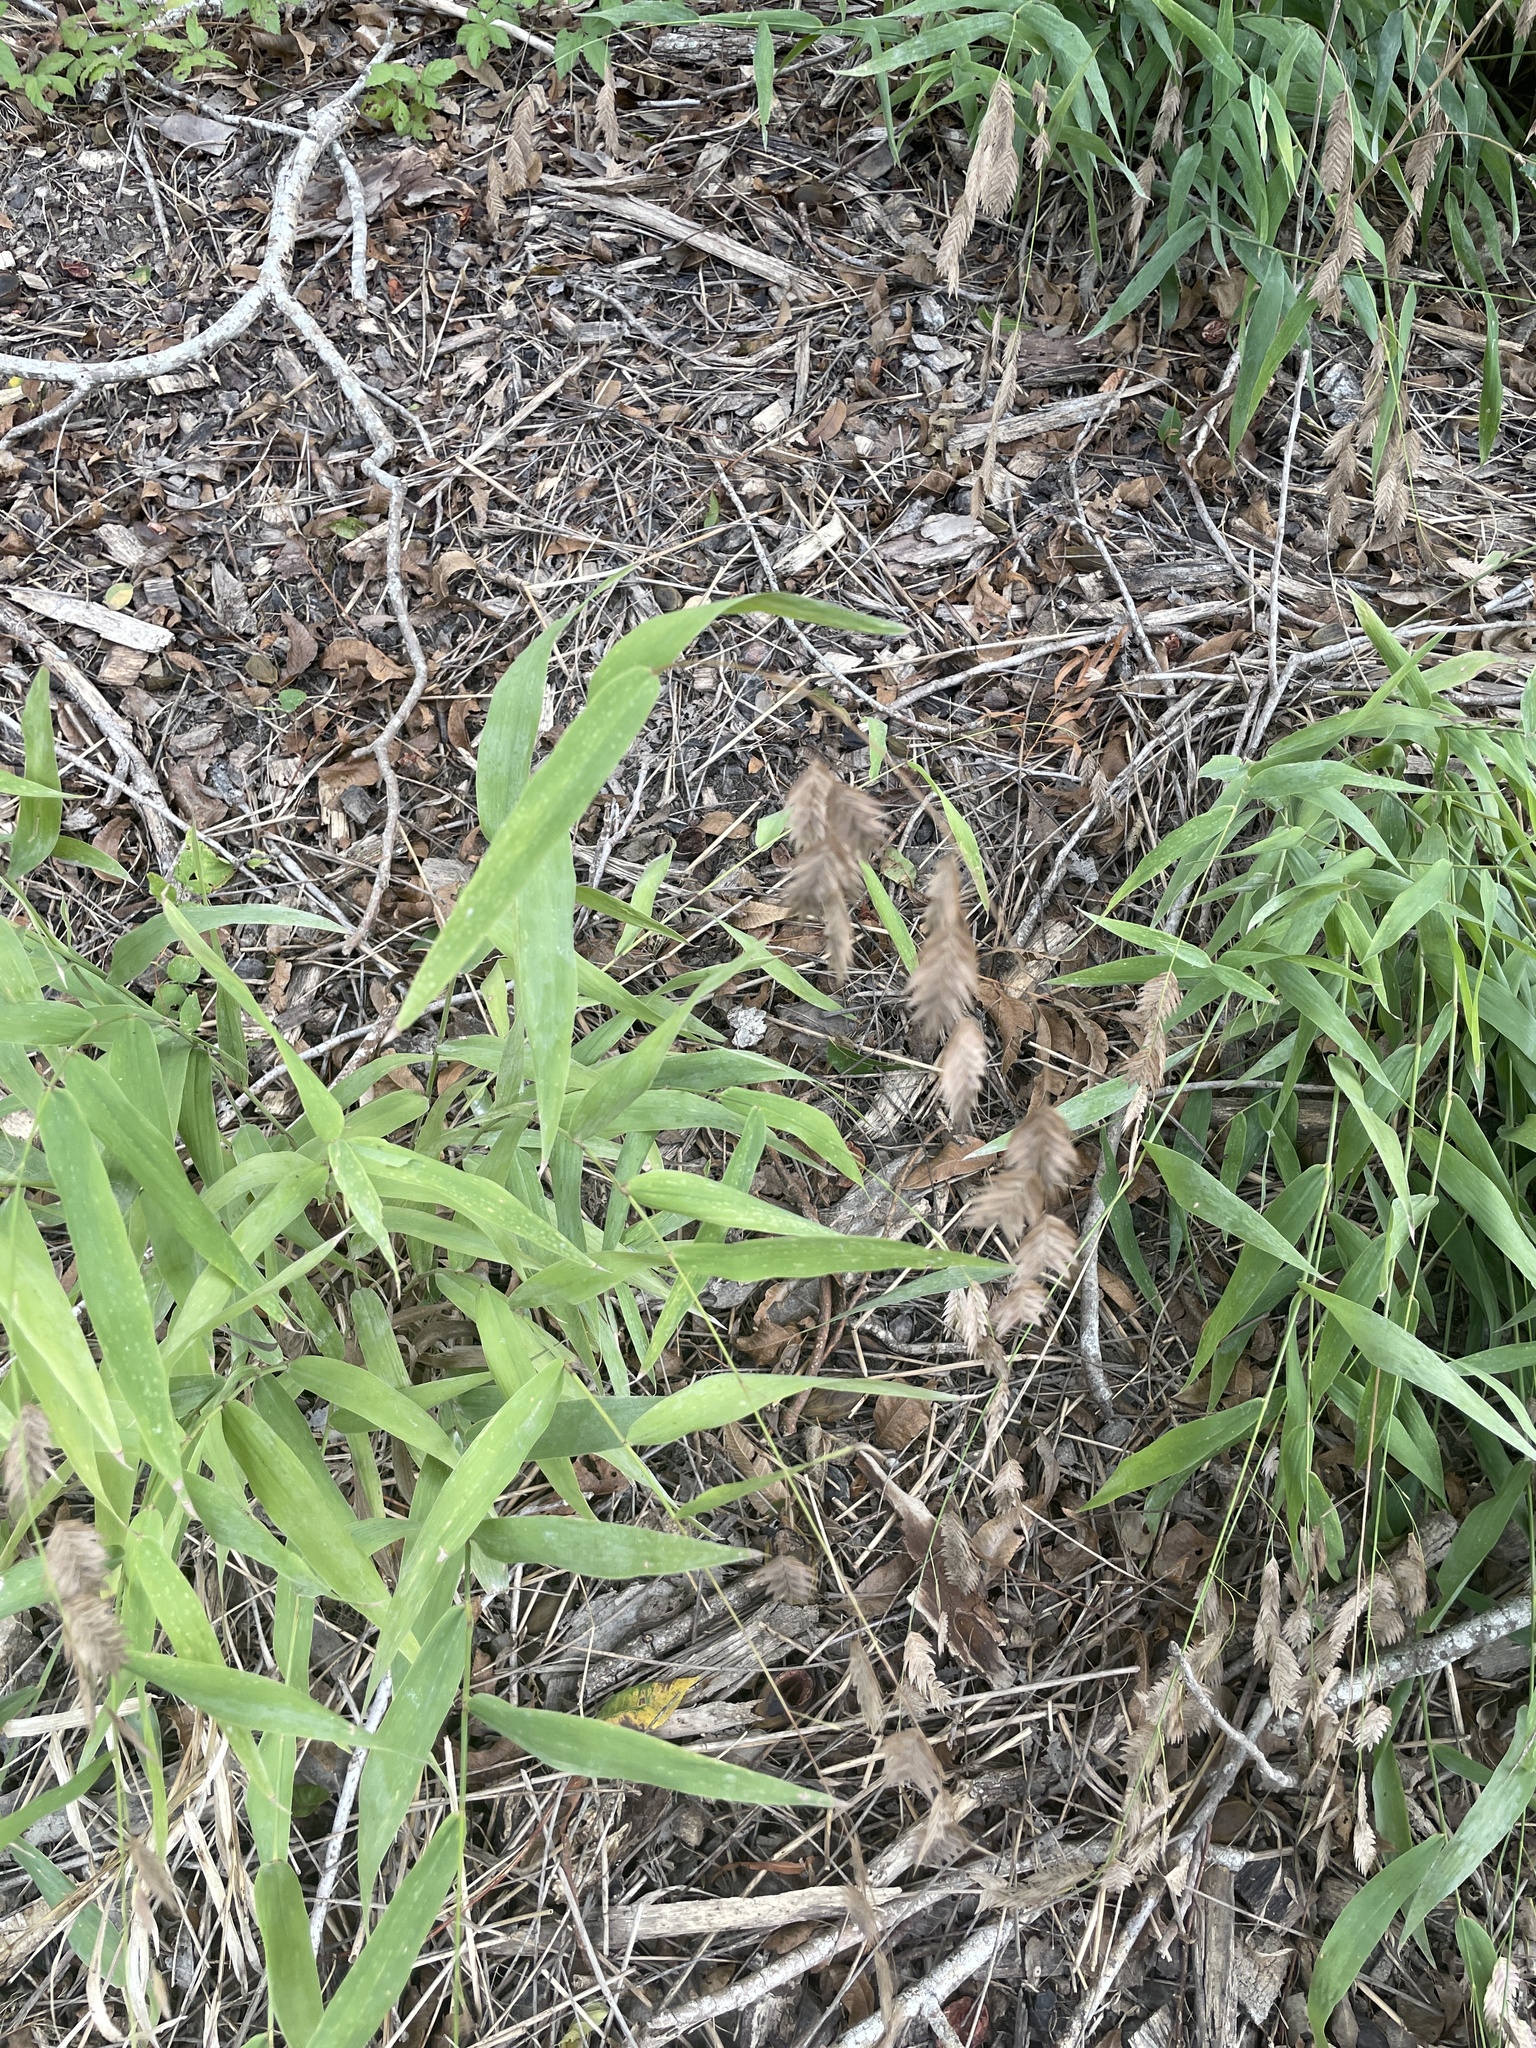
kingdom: Plantae
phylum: Tracheophyta
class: Liliopsida
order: Poales
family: Poaceae
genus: Chasmanthium
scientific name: Chasmanthium latifolium
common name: Broad-leaved chasmanthium
